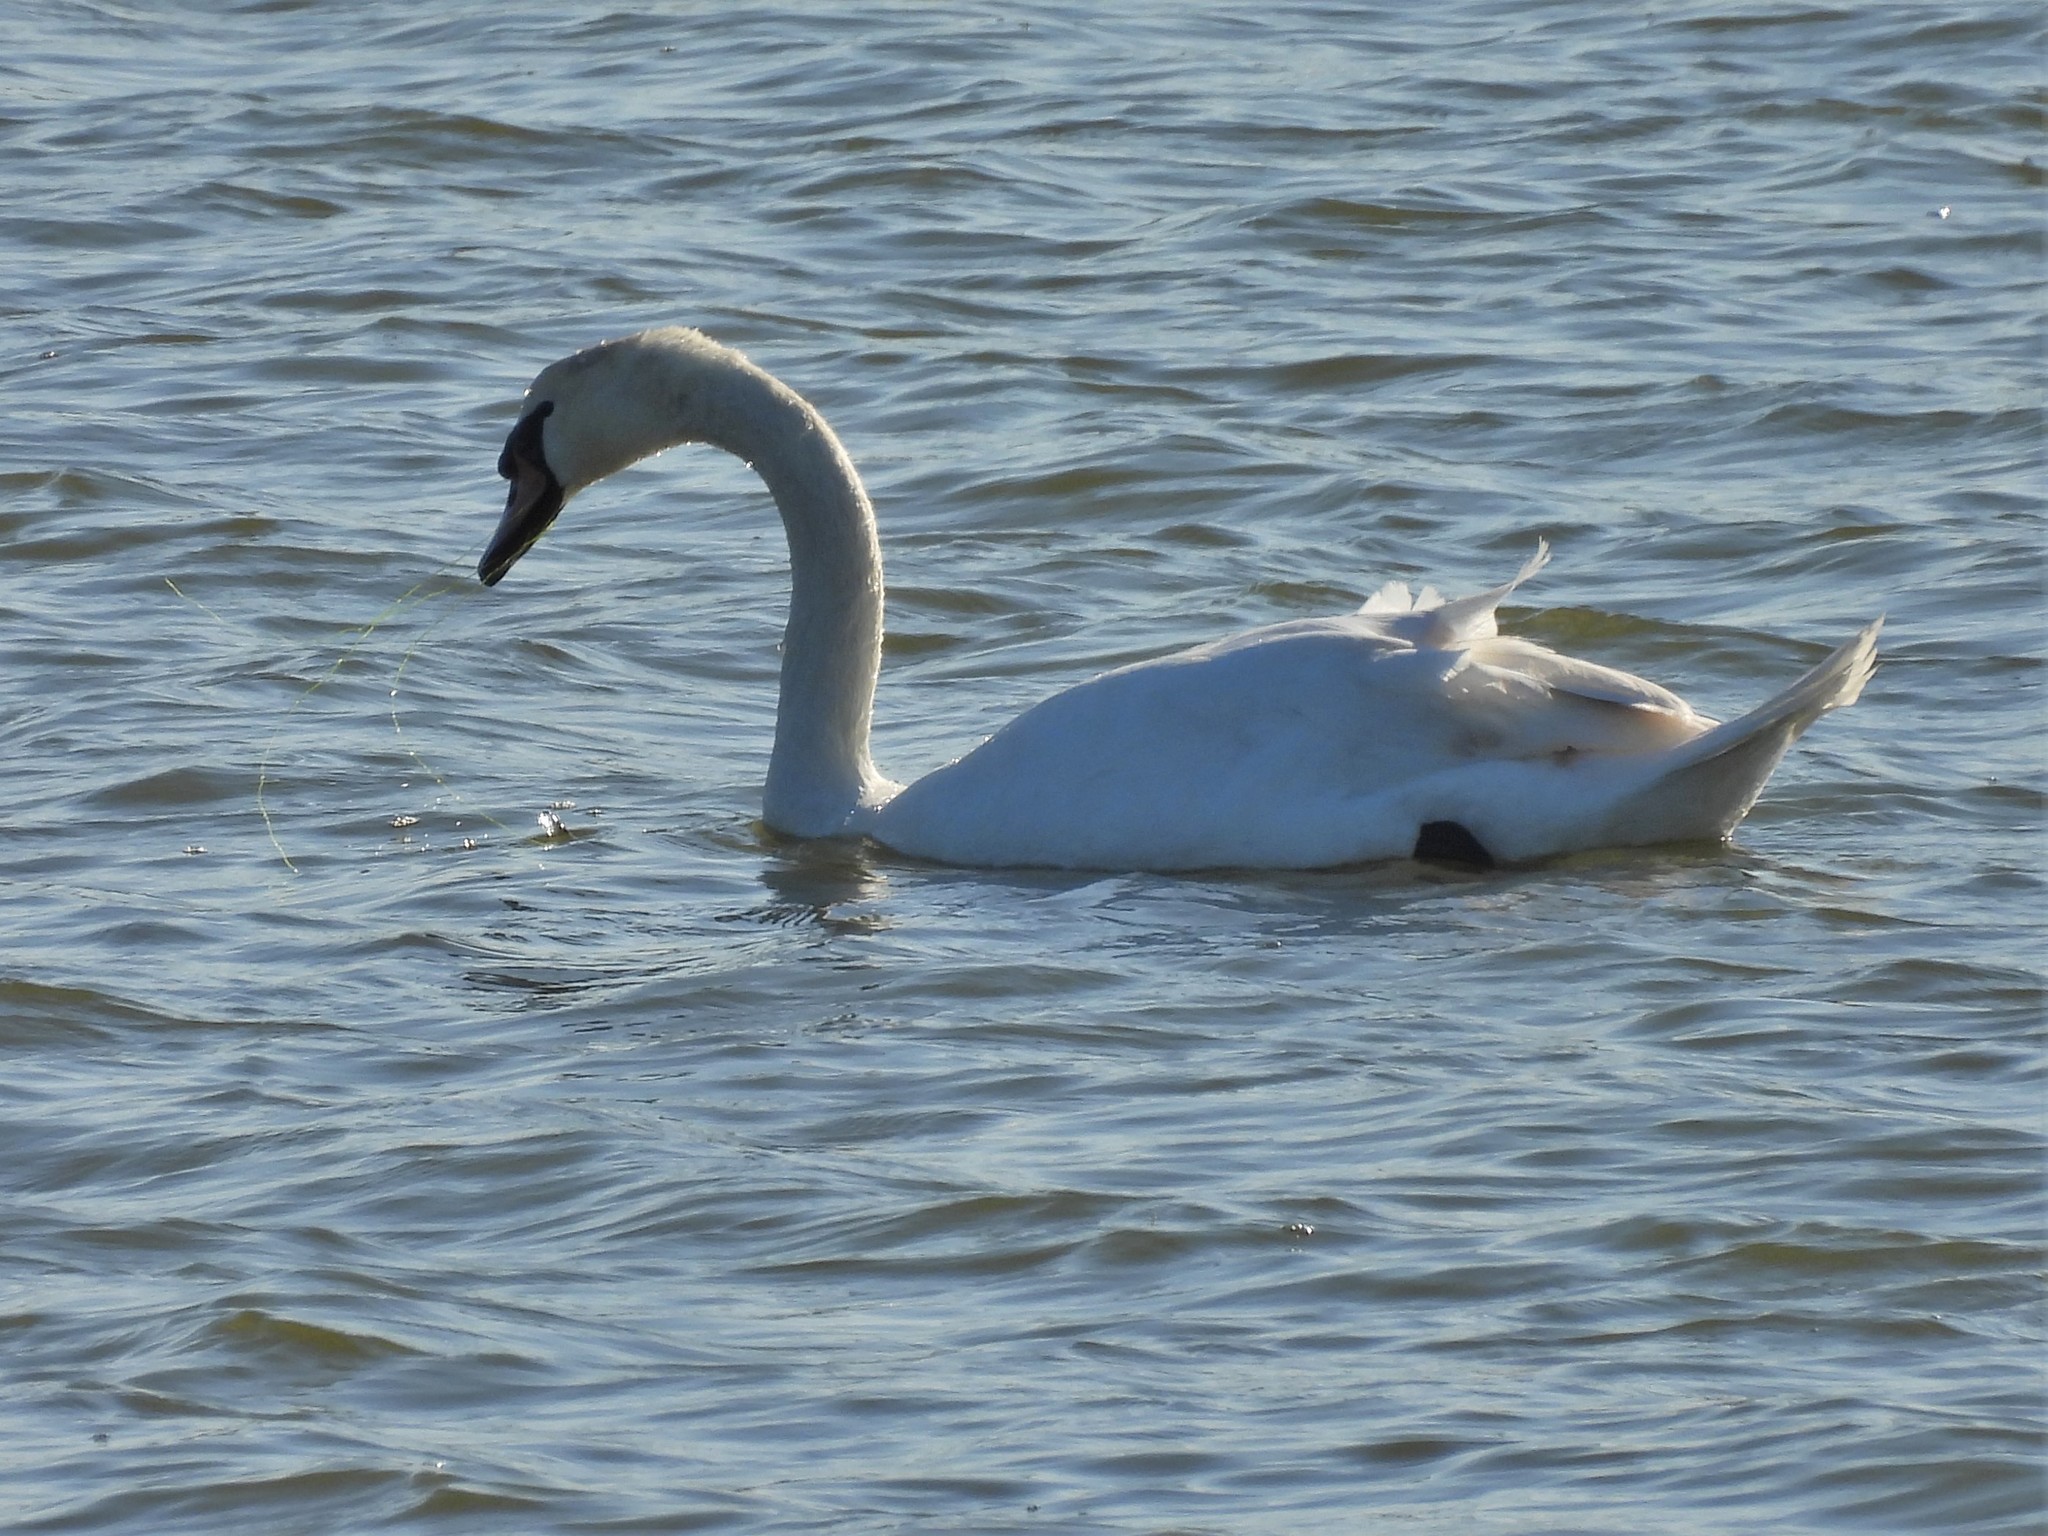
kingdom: Animalia
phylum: Chordata
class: Aves
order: Anseriformes
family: Anatidae
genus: Cygnus
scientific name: Cygnus olor
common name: Mute swan
